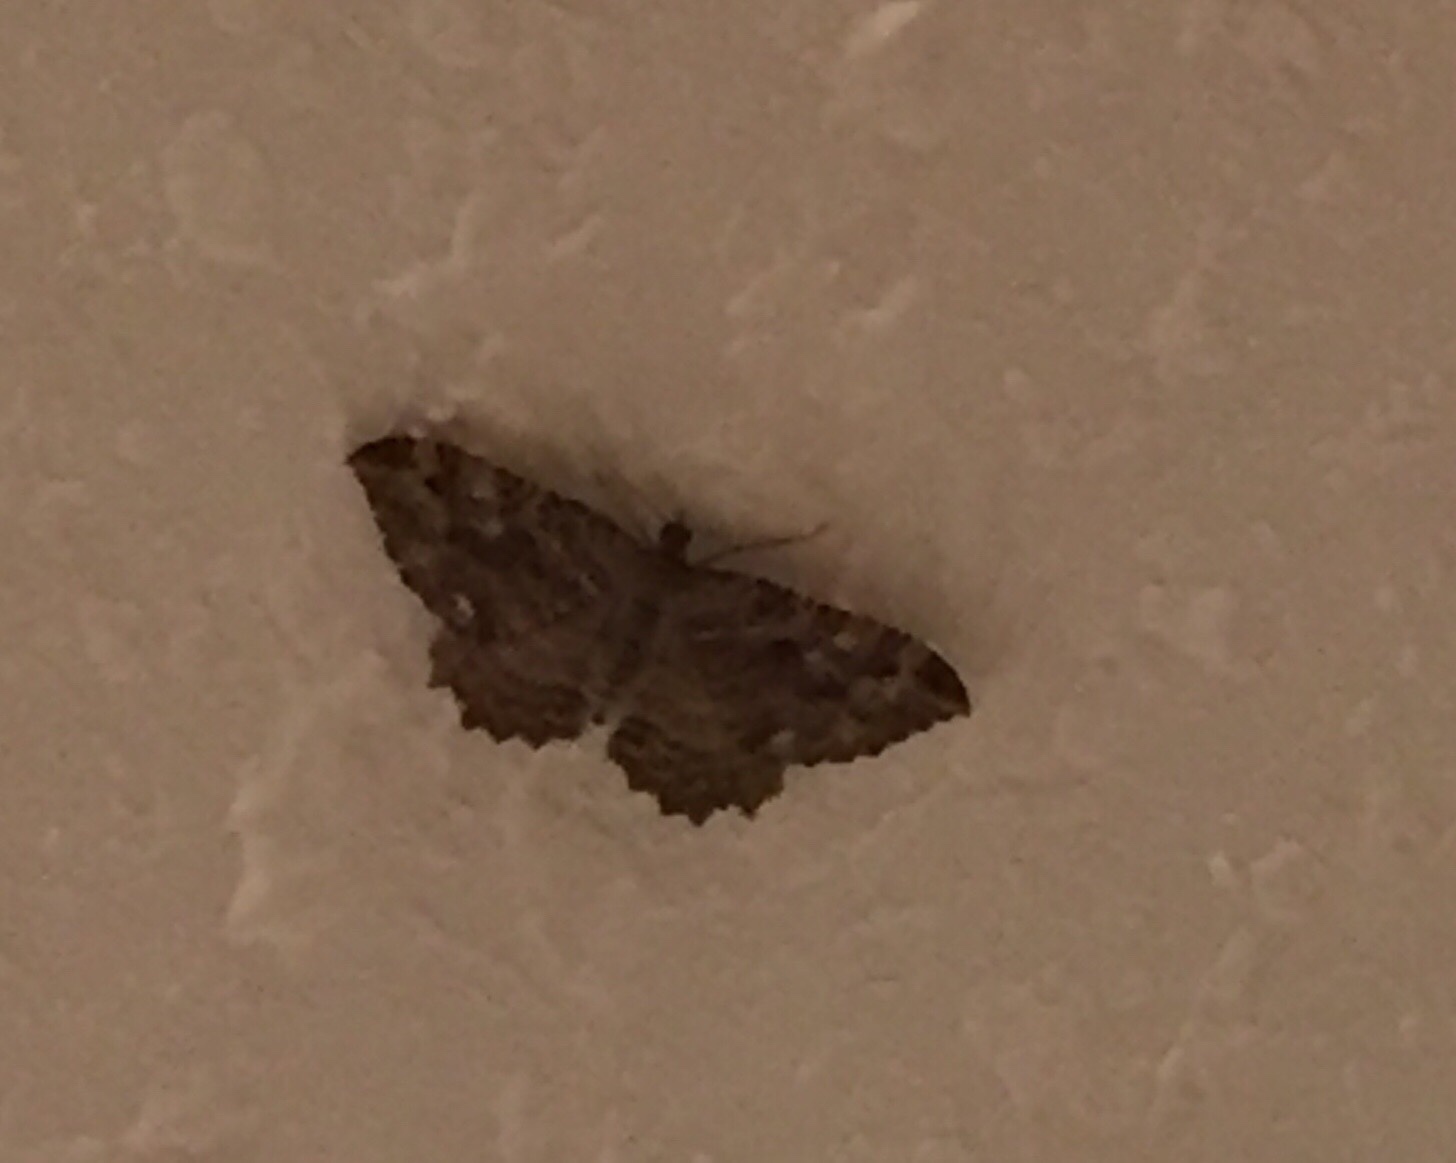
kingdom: Animalia
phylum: Arthropoda
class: Insecta
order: Lepidoptera
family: Geometridae
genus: Rheumaptera
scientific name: Rheumaptera
